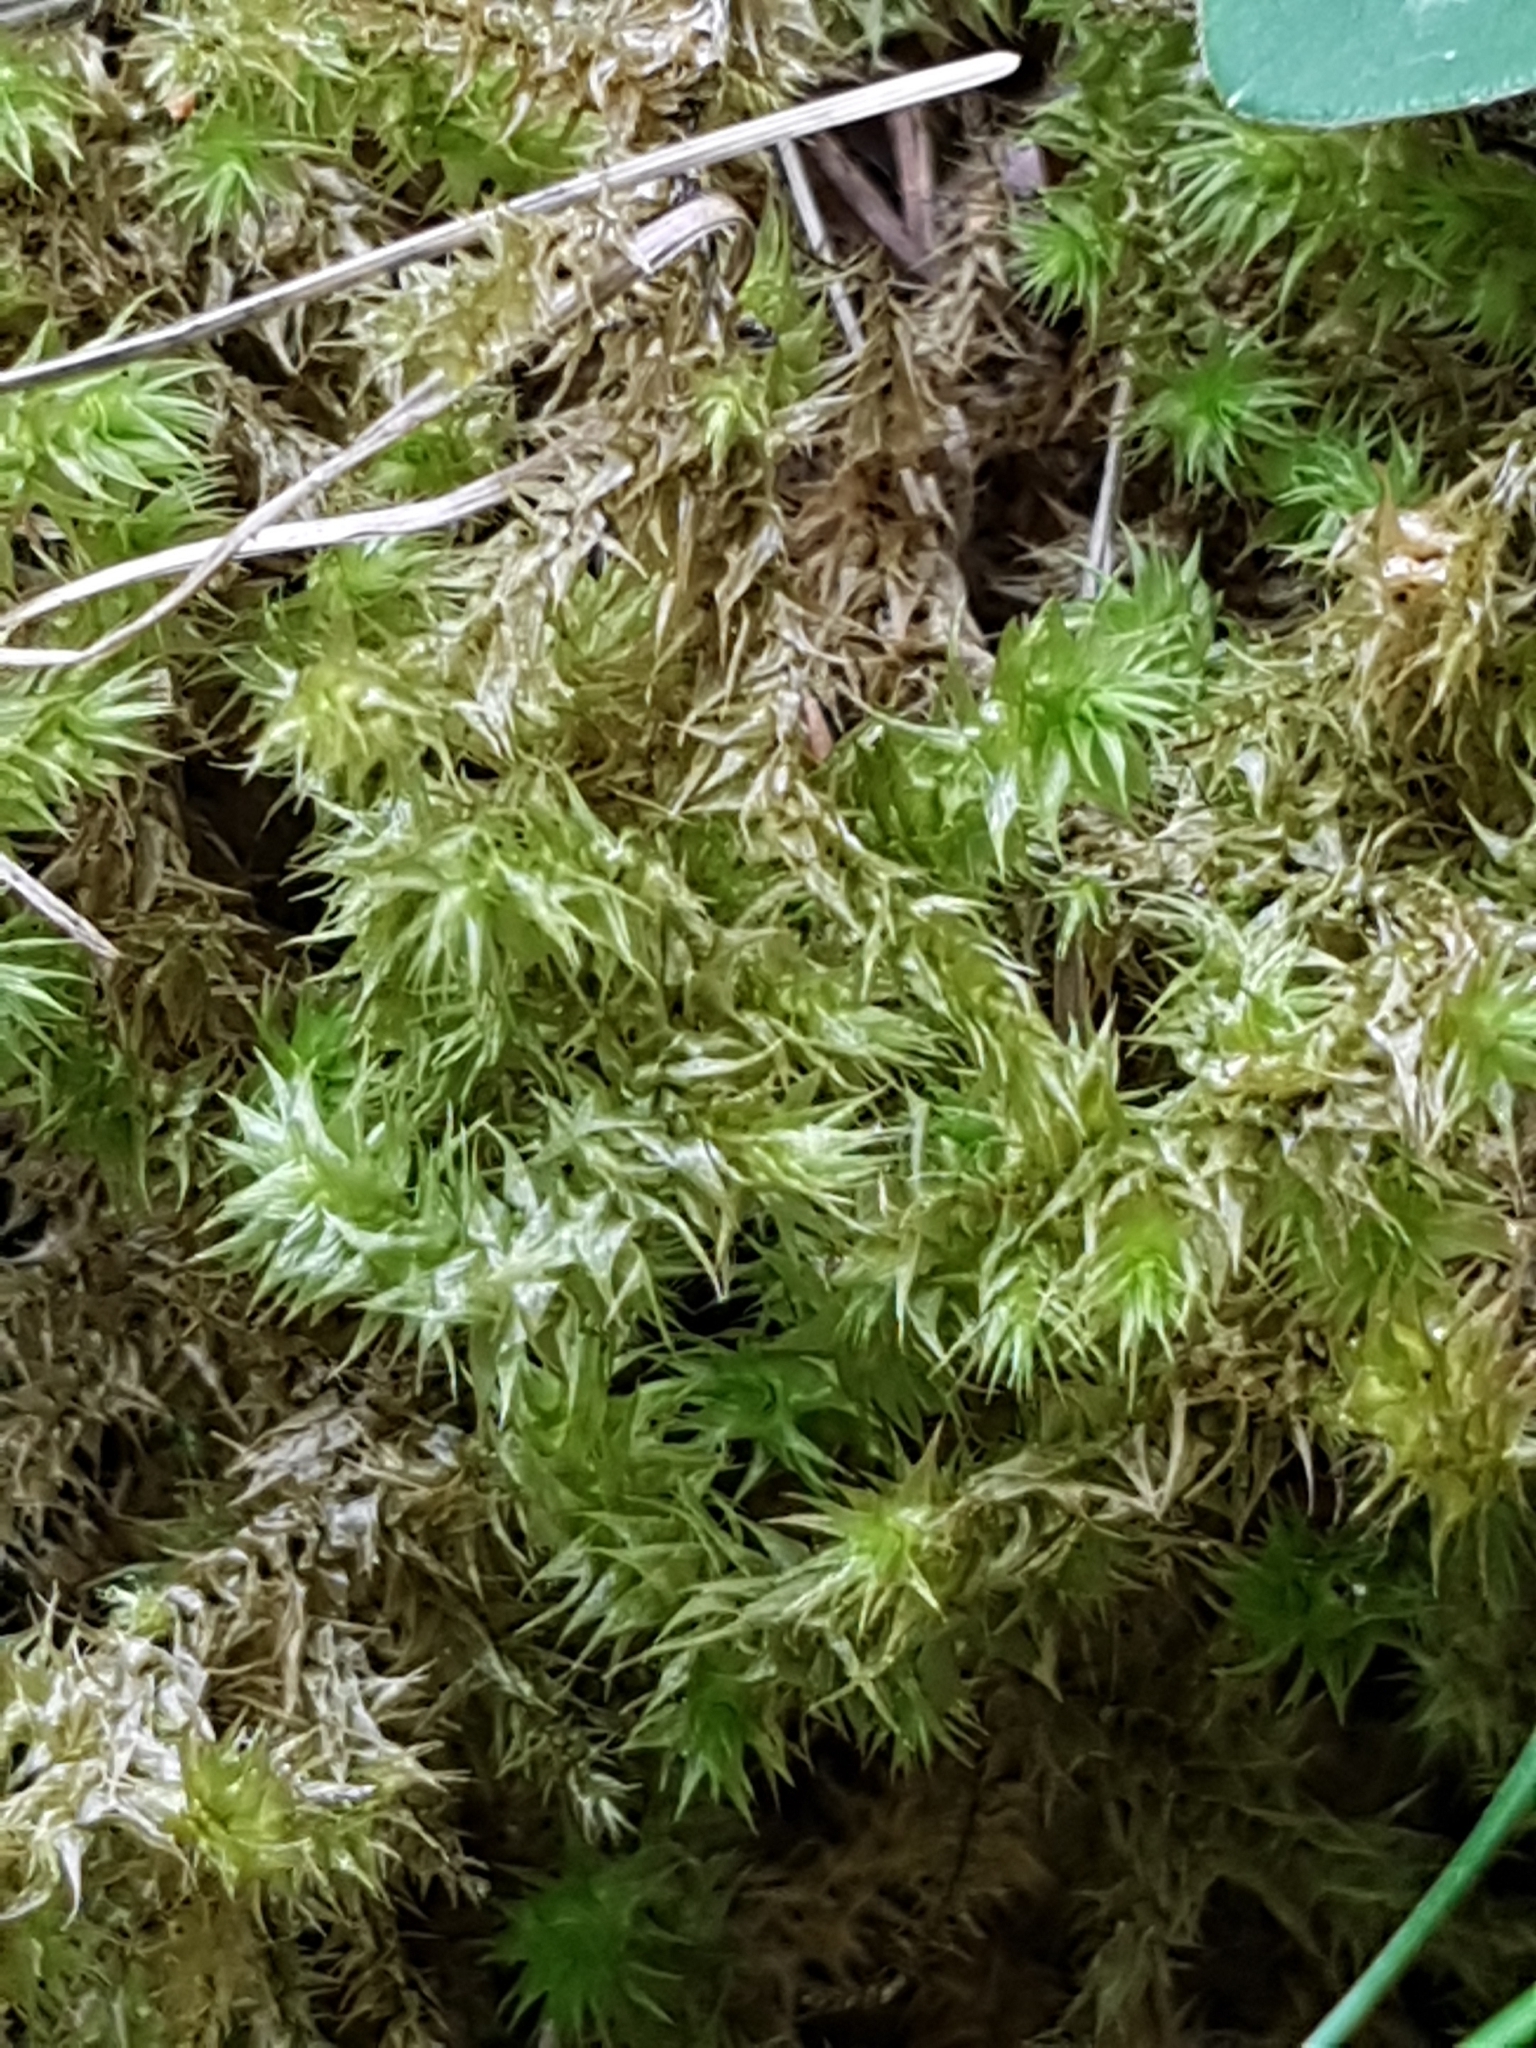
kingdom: Plantae
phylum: Bryophyta
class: Bryopsida
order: Hypnales
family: Hylocomiaceae
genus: Hylocomiadelphus
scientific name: Hylocomiadelphus triquetrus
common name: Rough goose neck moss
